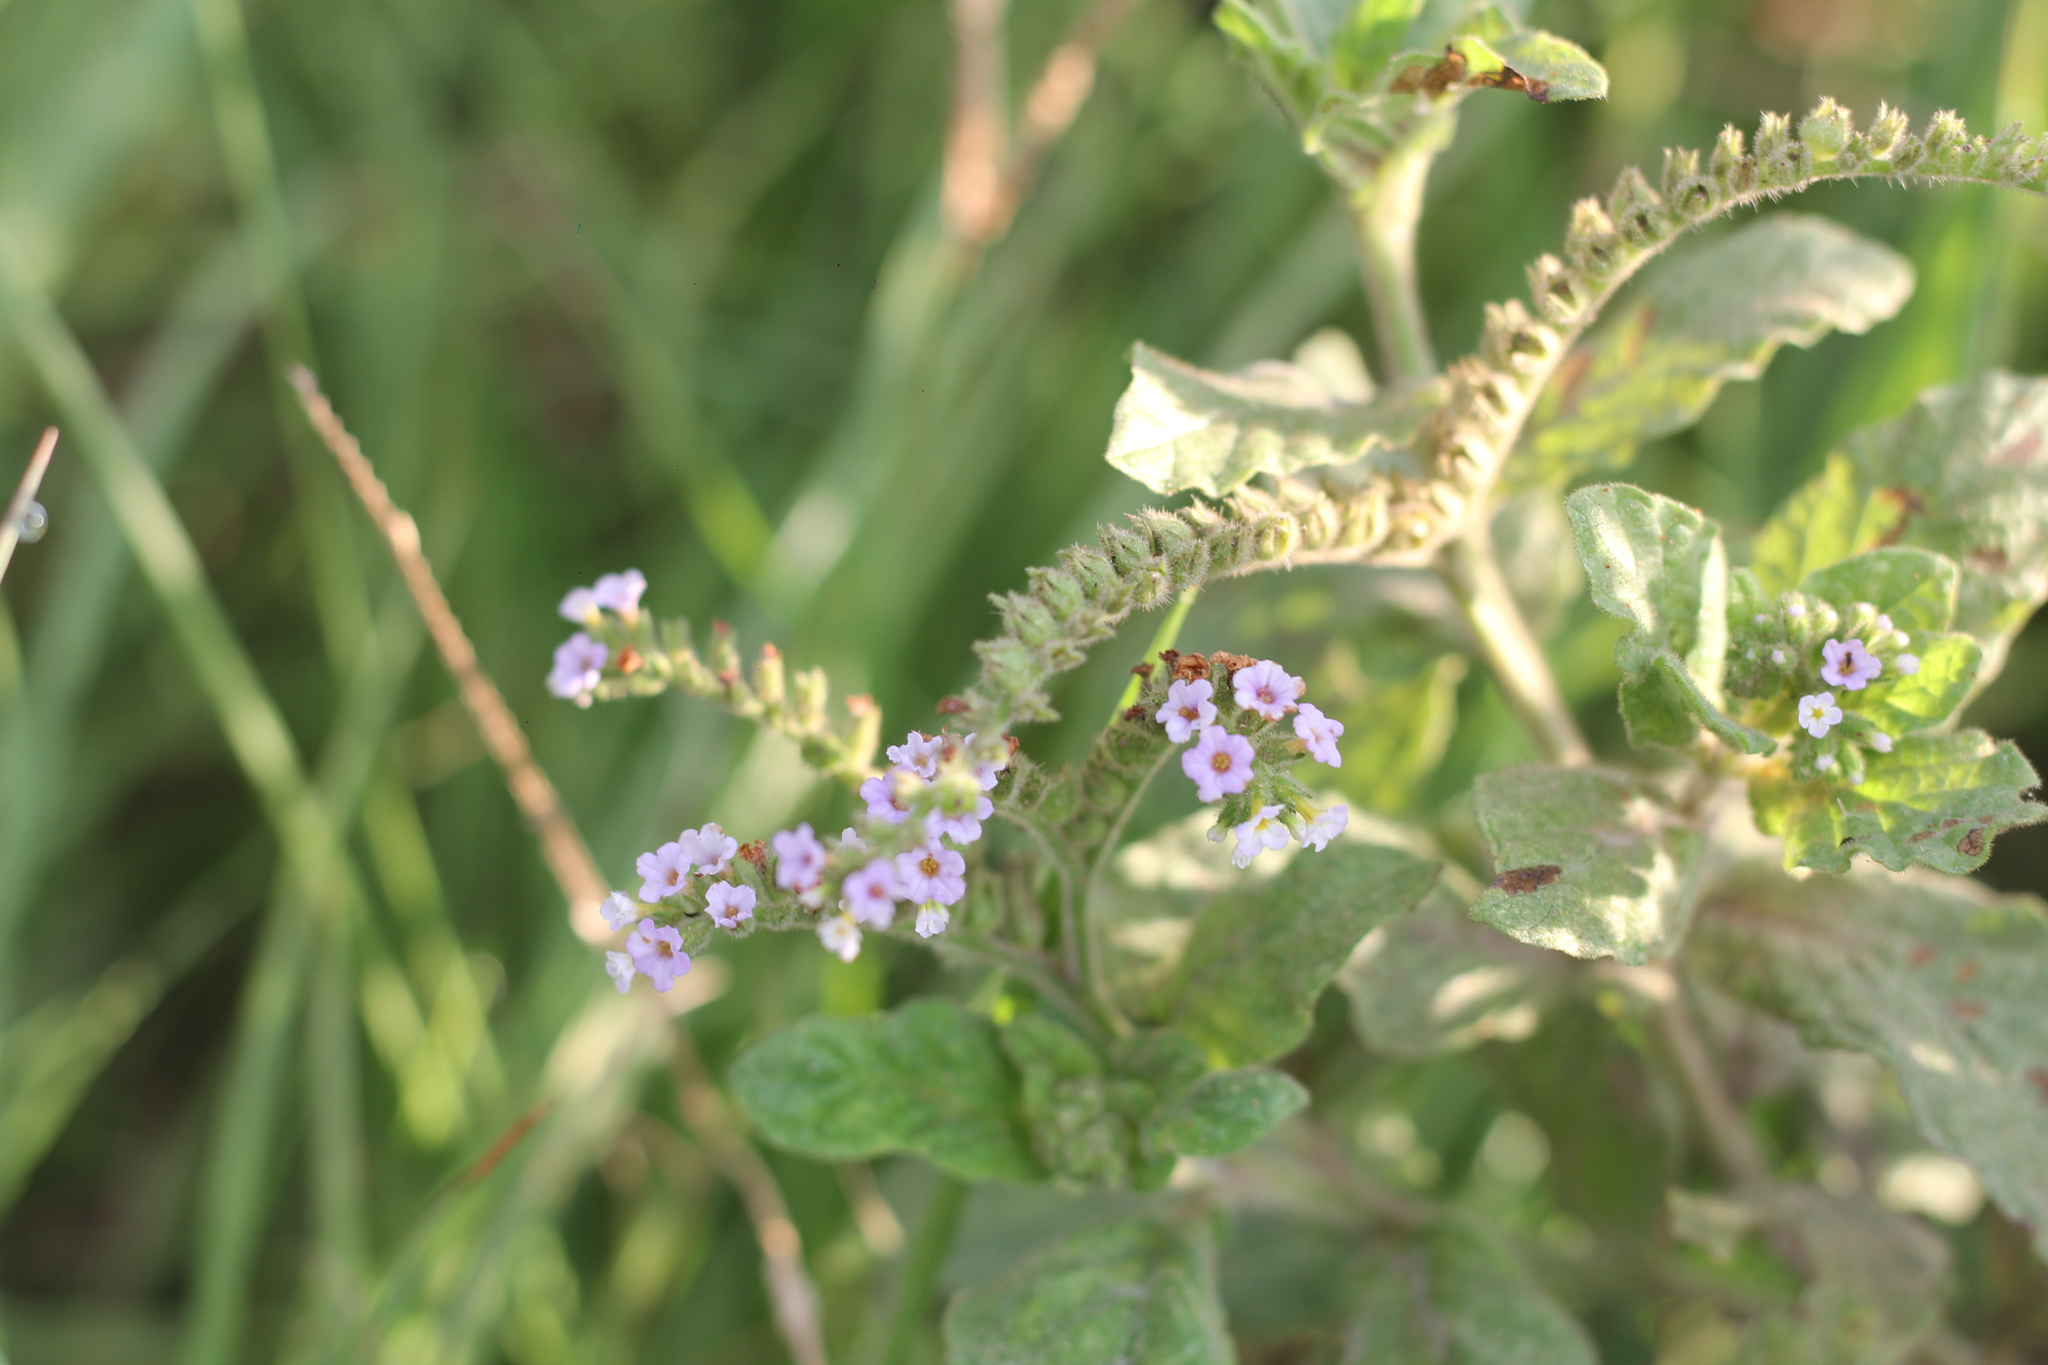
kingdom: Plantae
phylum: Tracheophyta
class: Magnoliopsida
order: Boraginales
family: Heliotropiaceae
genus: Heliotropium
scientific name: Heliotropium nicotianifolium
